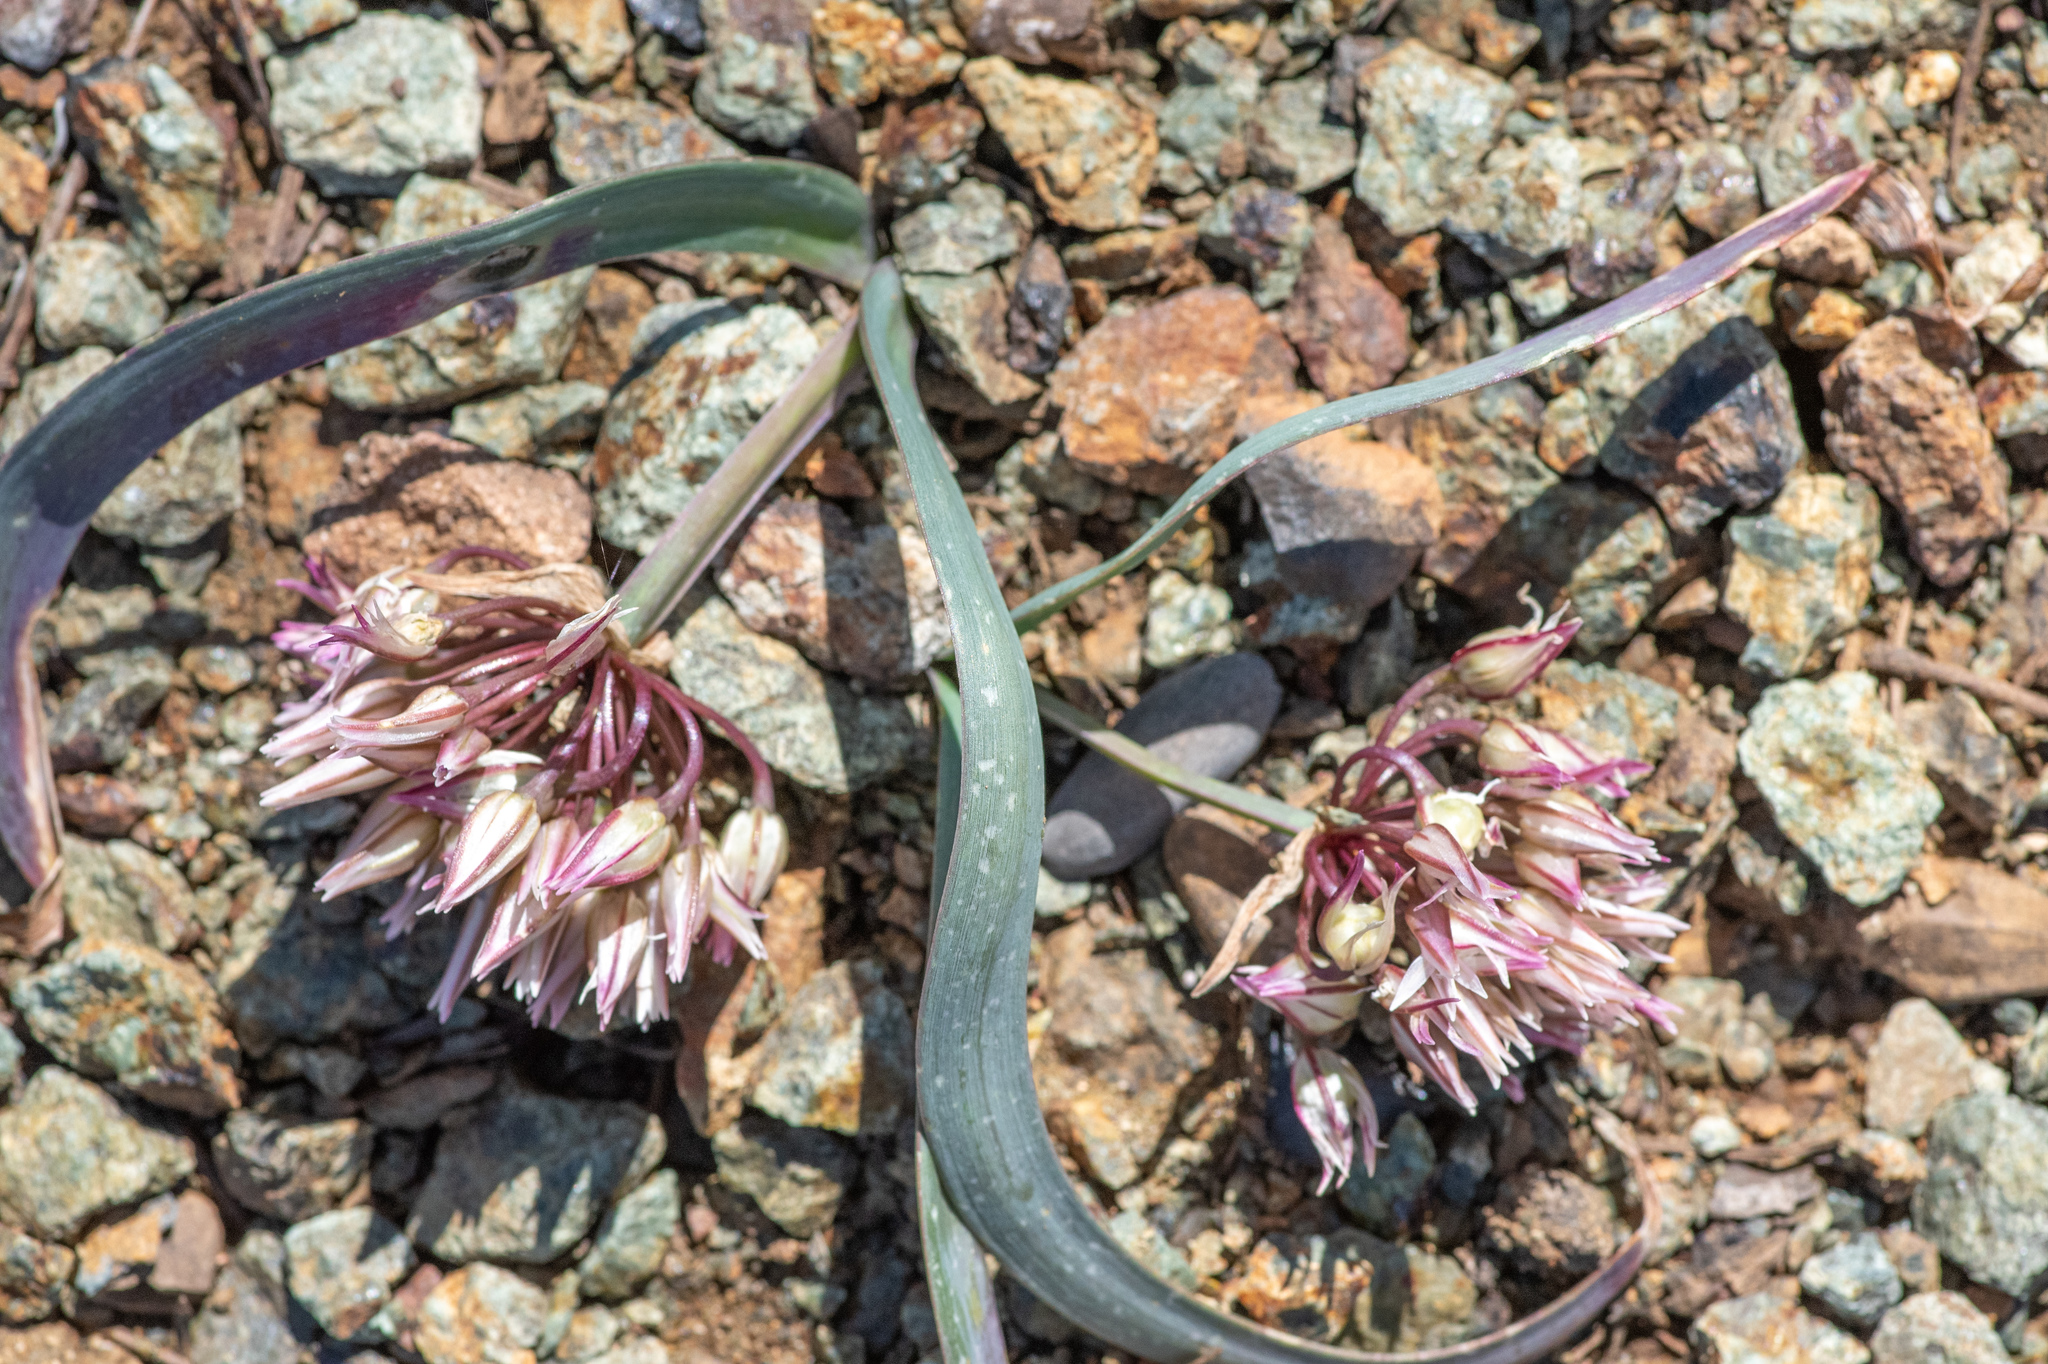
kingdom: Plantae
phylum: Tracheophyta
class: Liliopsida
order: Asparagales
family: Amaryllidaceae
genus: Allium
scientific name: Allium falcifolium
